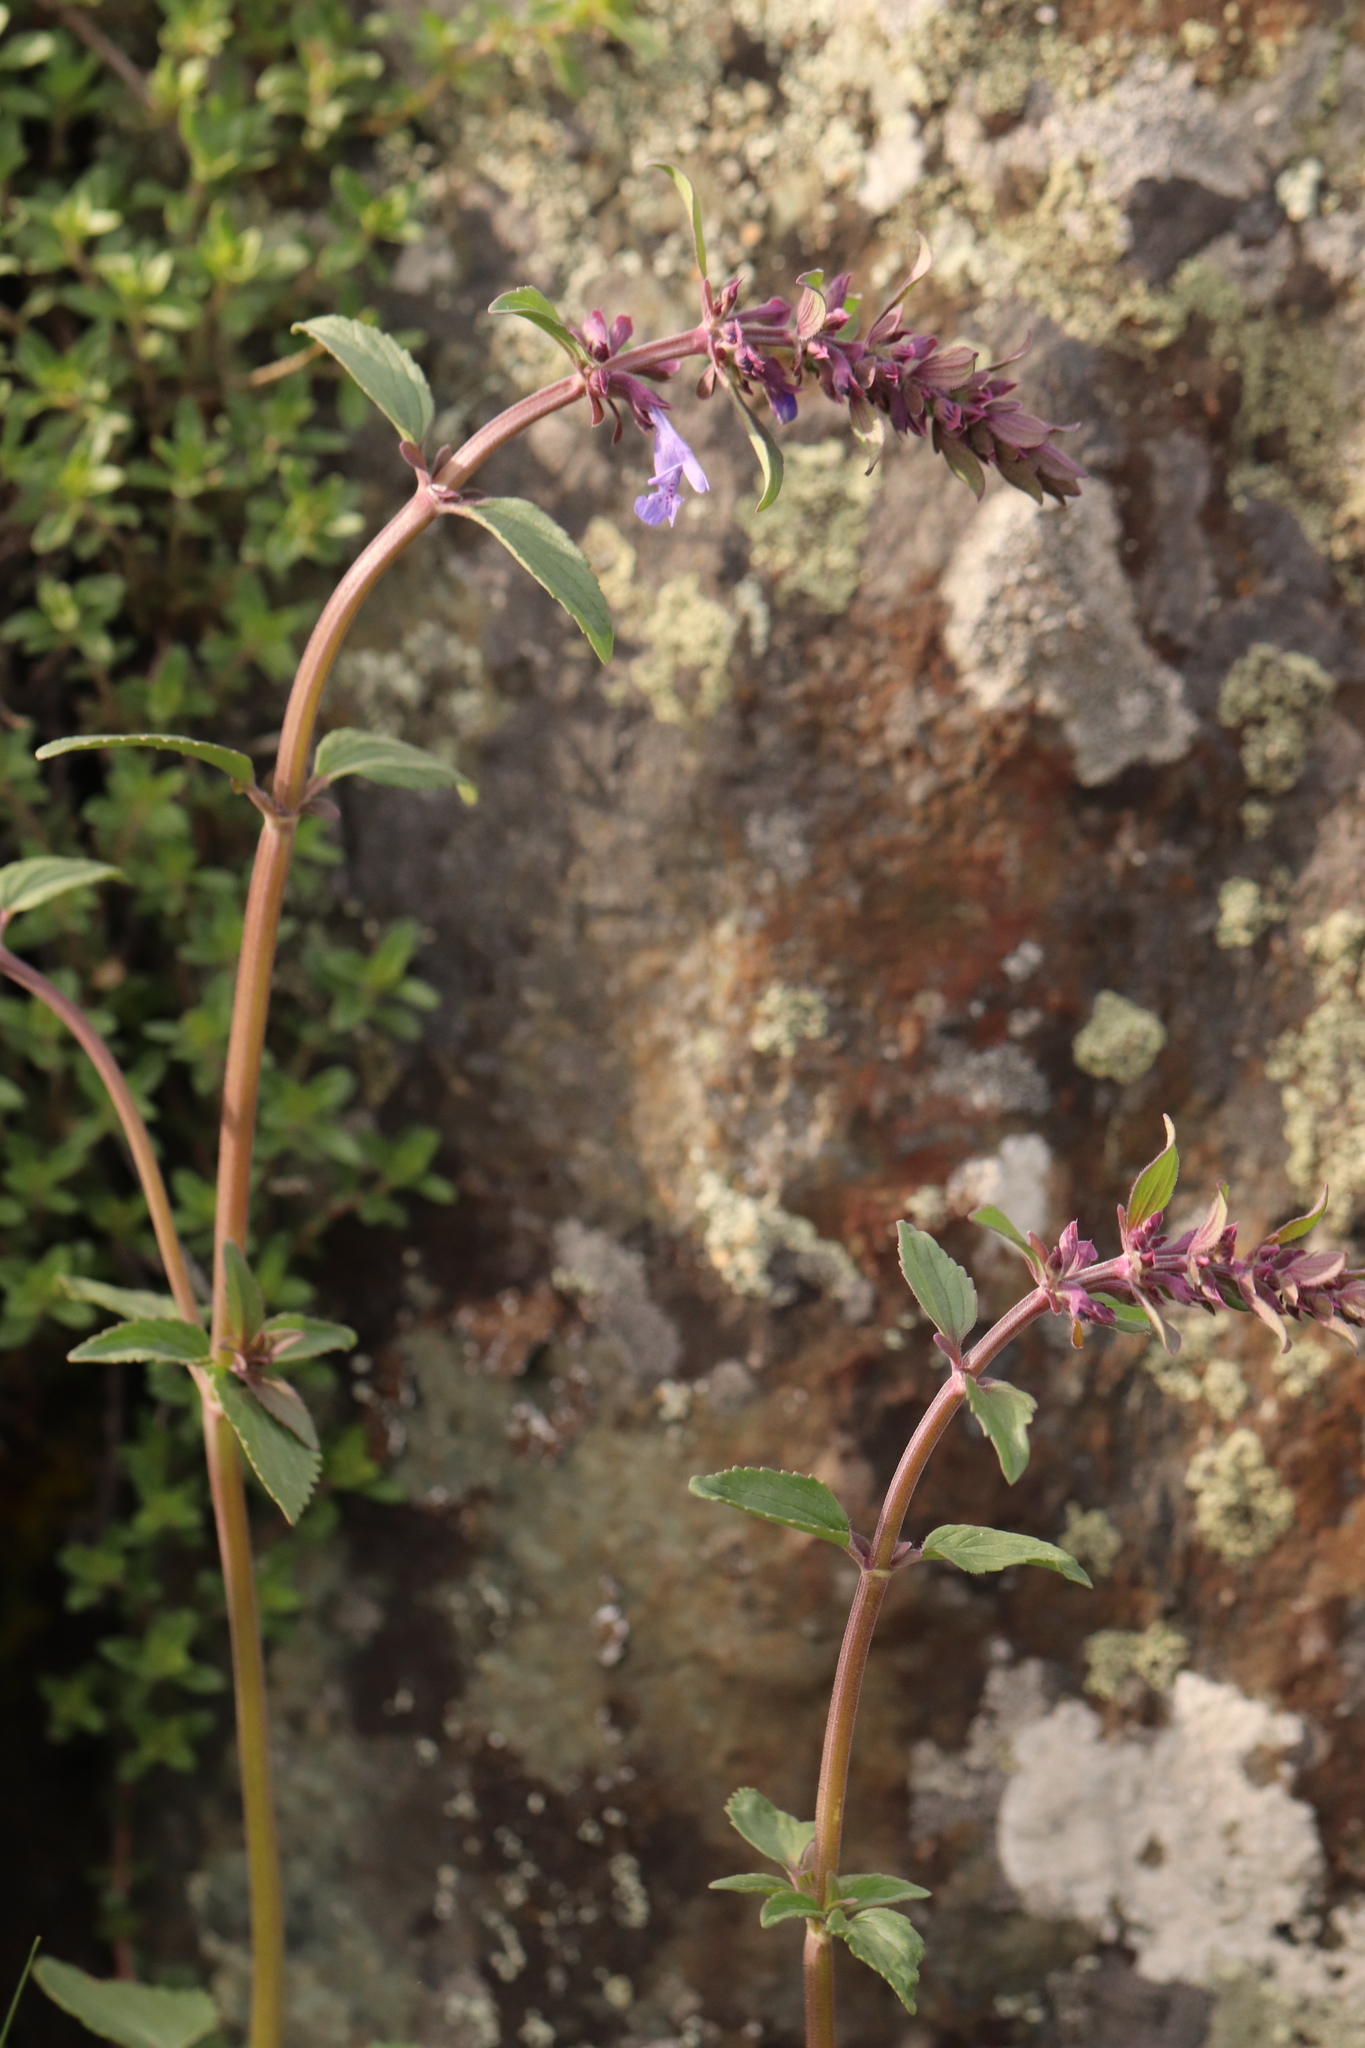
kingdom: Plantae
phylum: Tracheophyta
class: Magnoliopsida
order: Lamiales
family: Lamiaceae
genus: Dracocephalum
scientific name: Dracocephalum nutans
